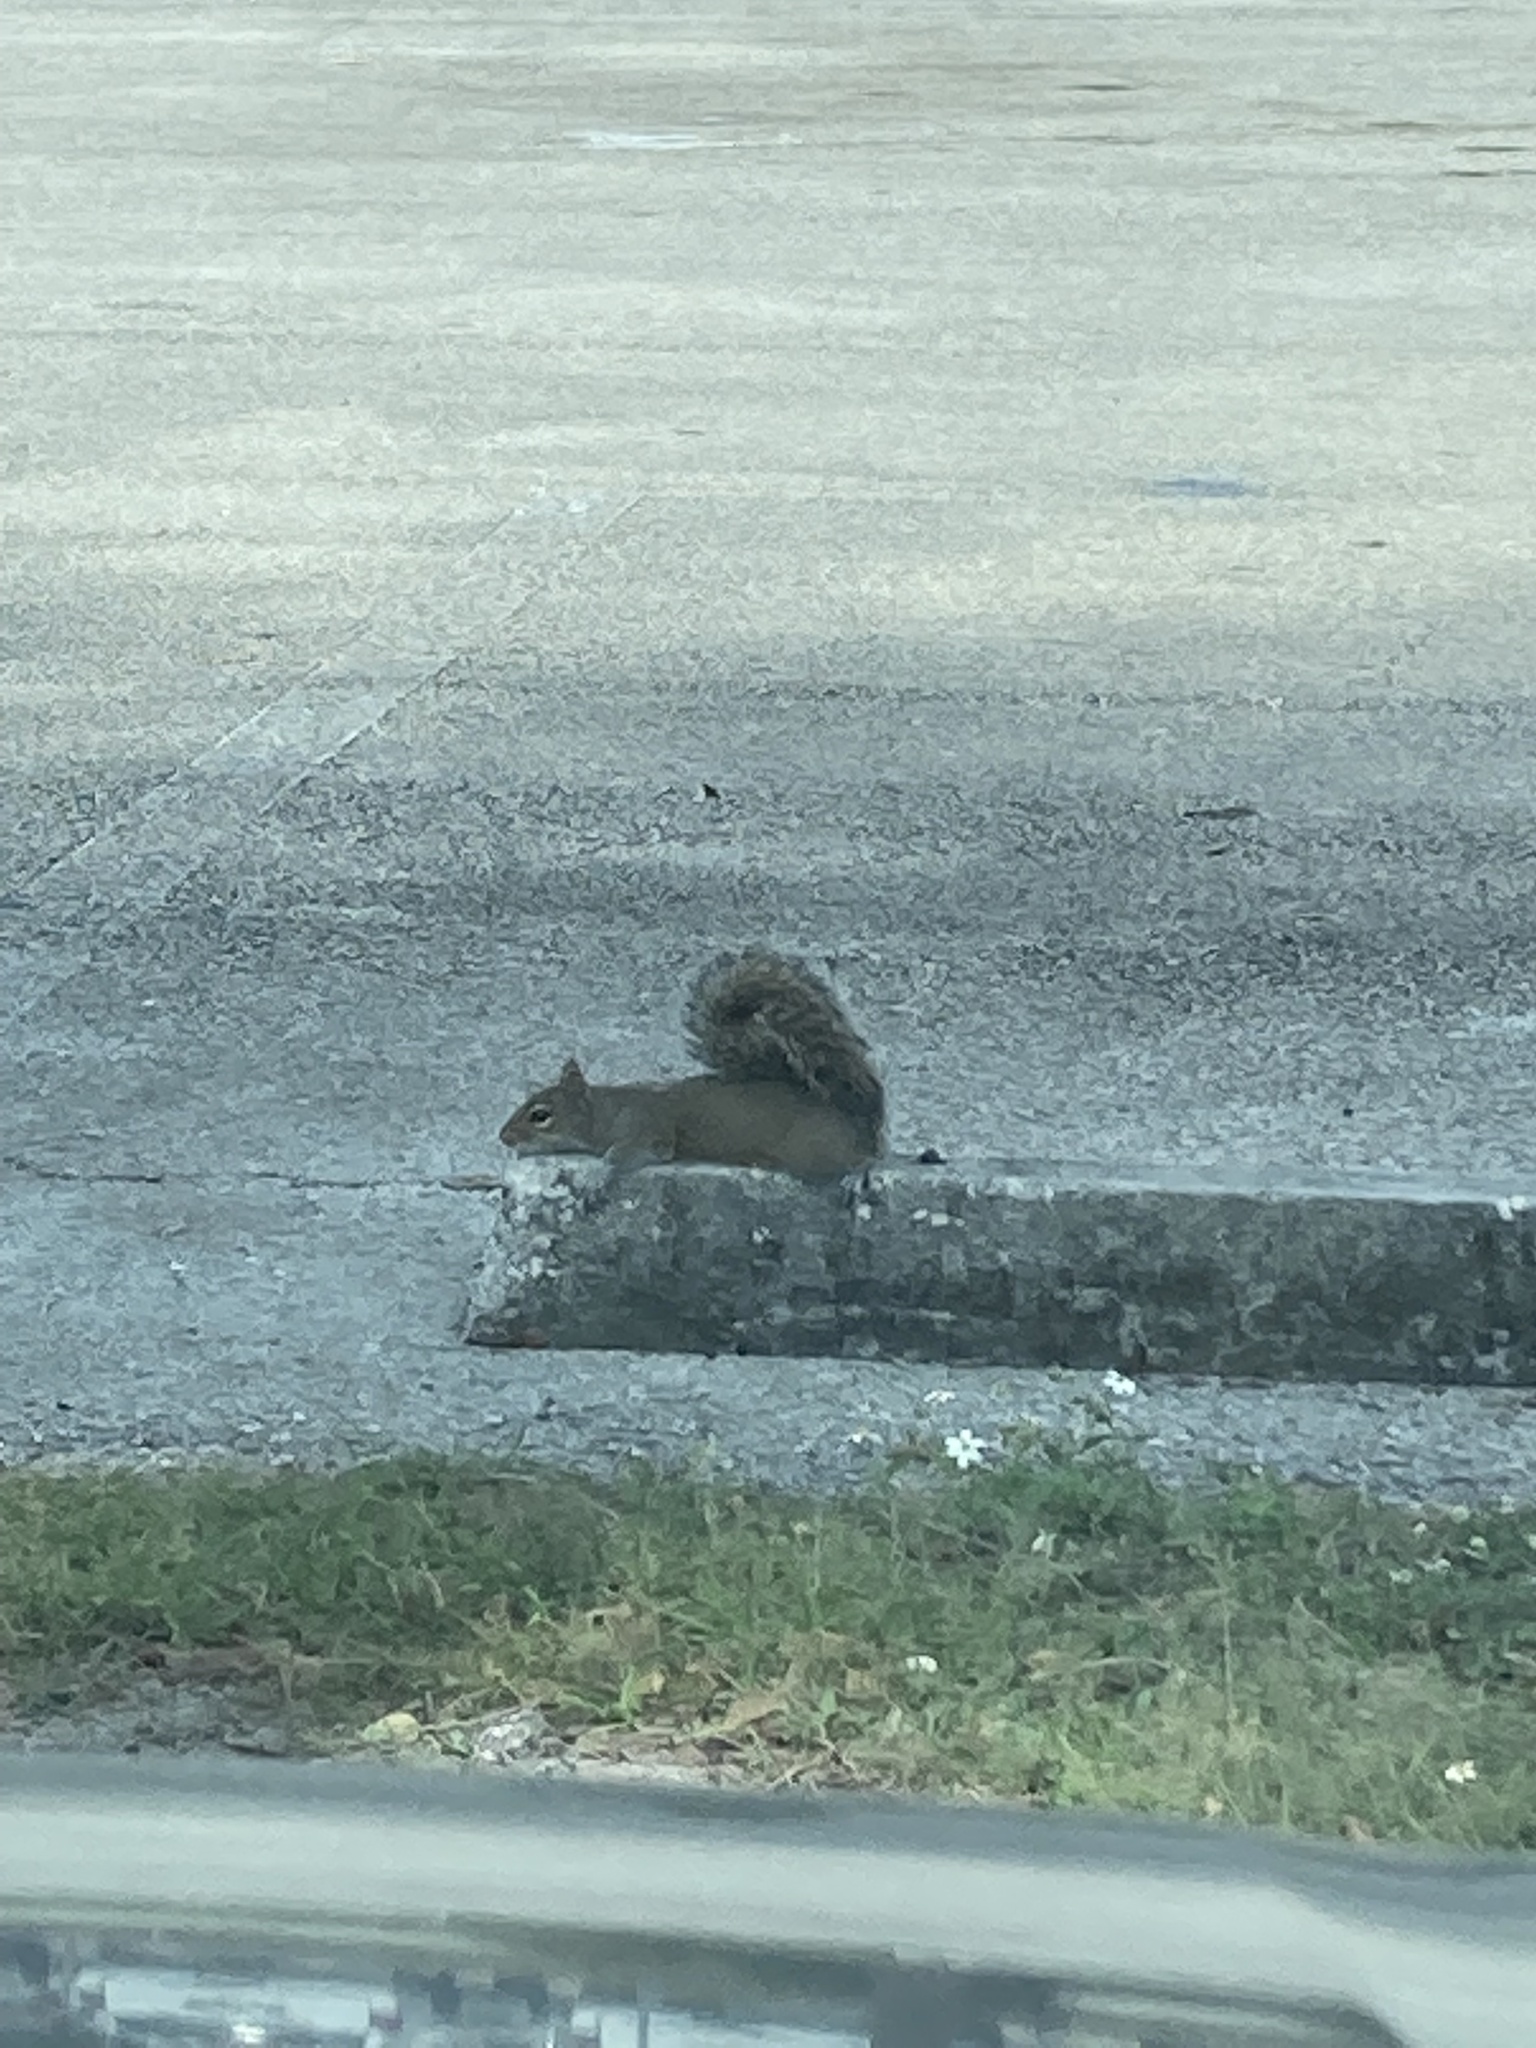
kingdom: Animalia
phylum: Chordata
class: Mammalia
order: Rodentia
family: Sciuridae
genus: Sciurus
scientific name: Sciurus carolinensis
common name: Eastern gray squirrel
